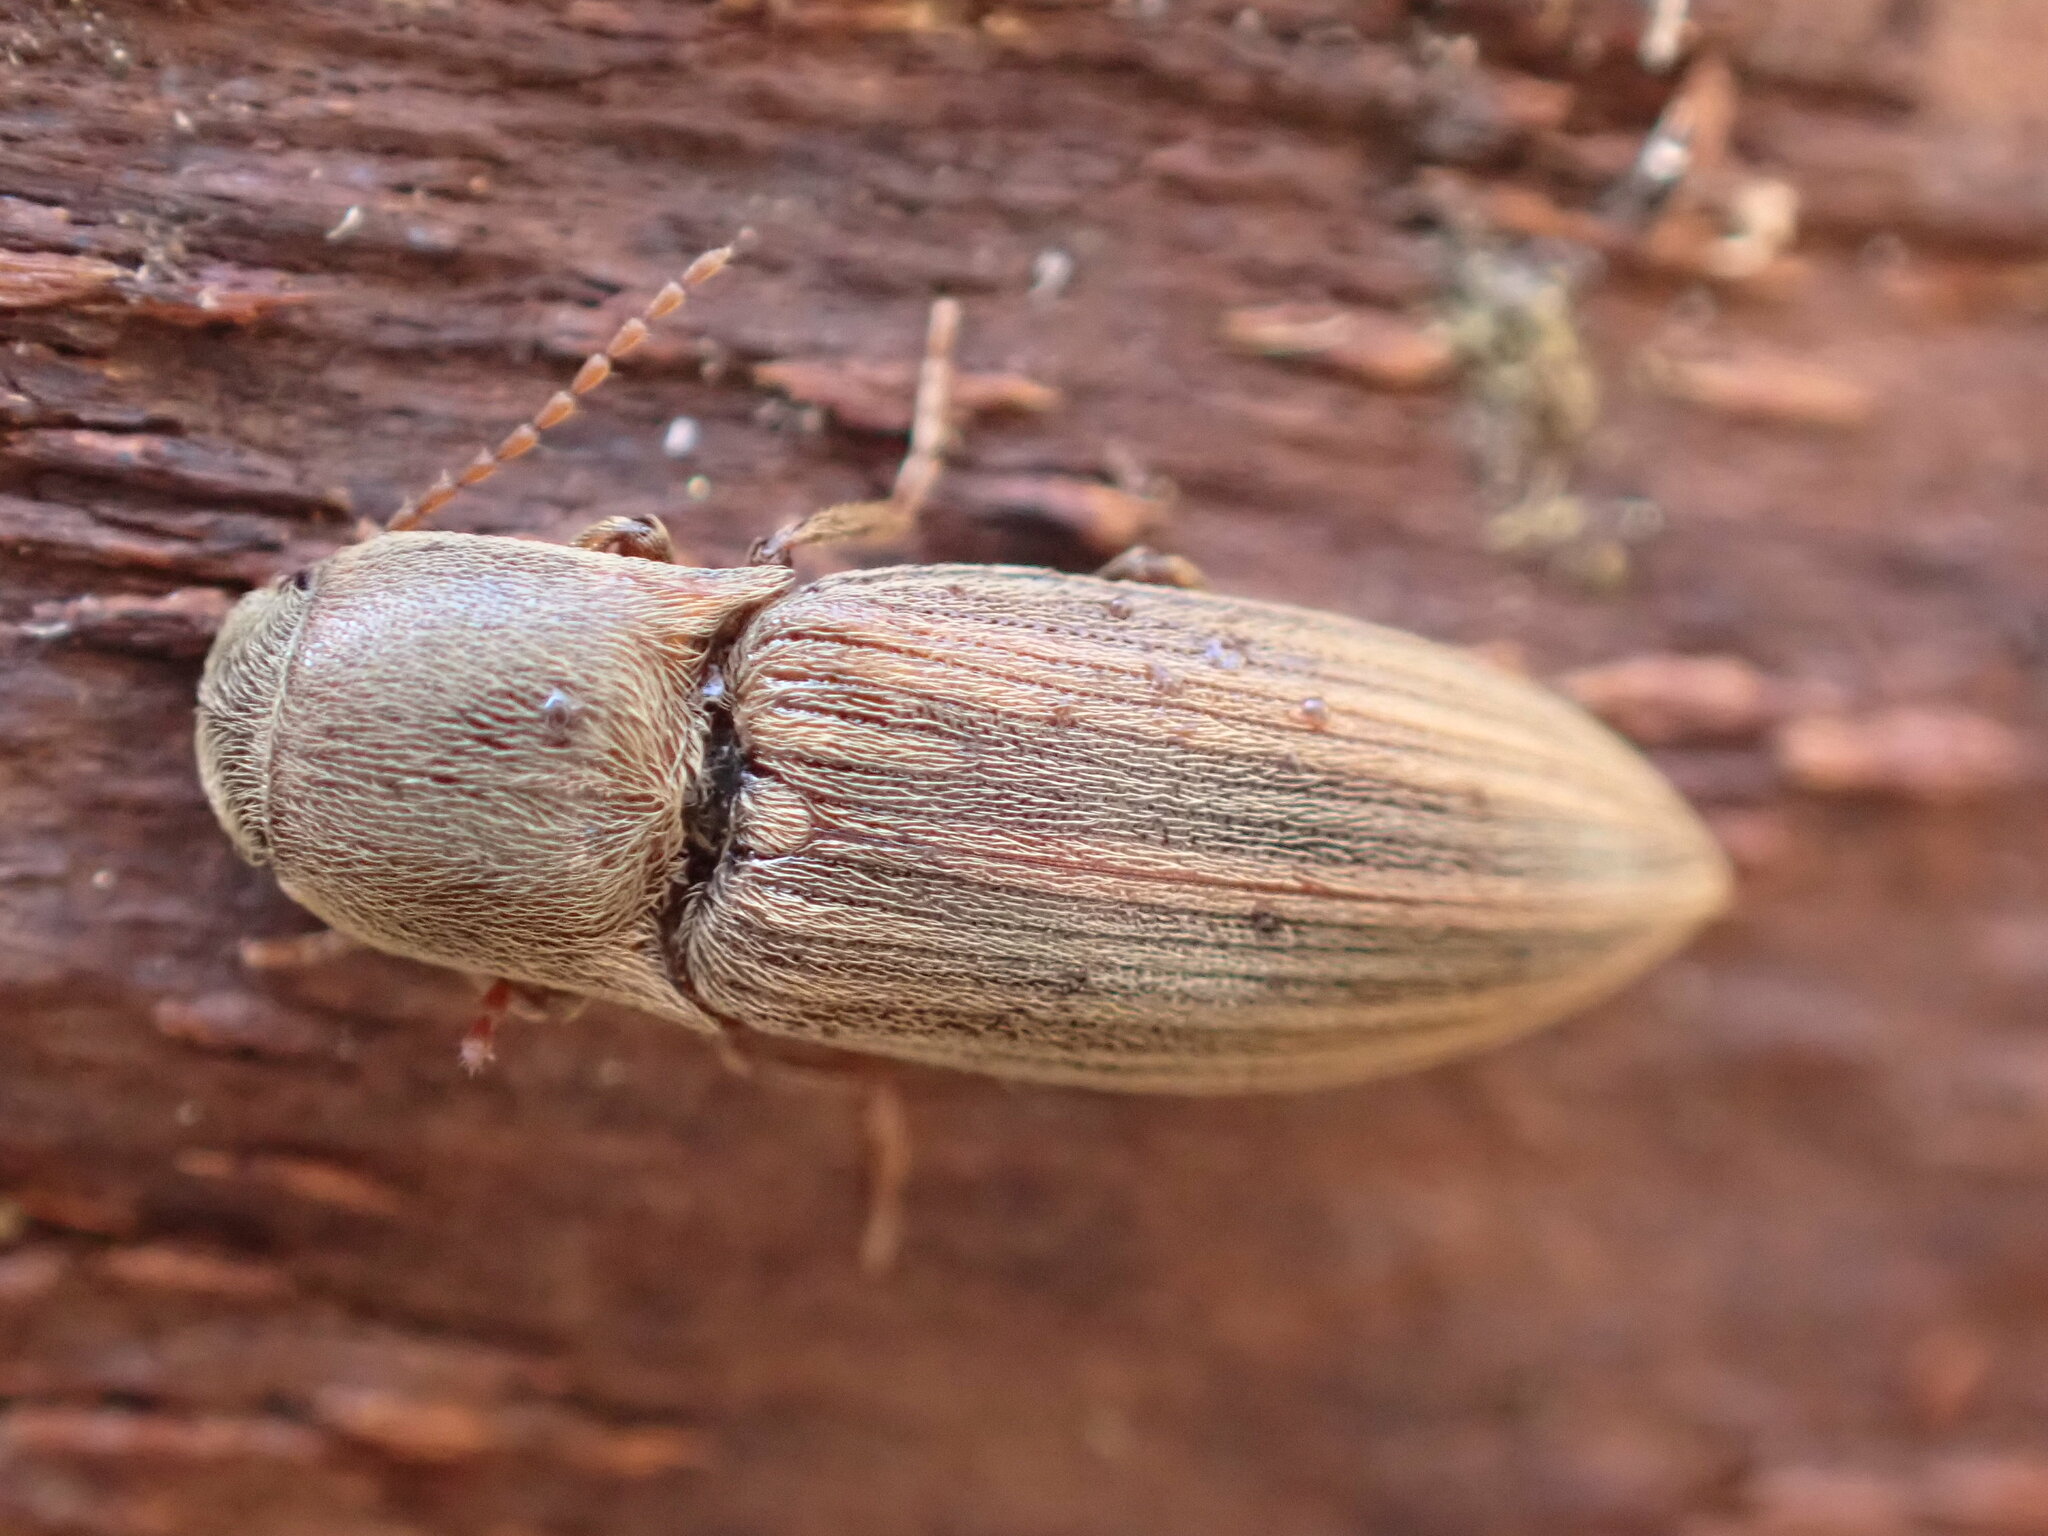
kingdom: Animalia
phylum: Arthropoda
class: Insecta
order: Coleoptera
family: Elateridae
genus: Agriotes
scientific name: Agriotes lineatus
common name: Lined click beetle
